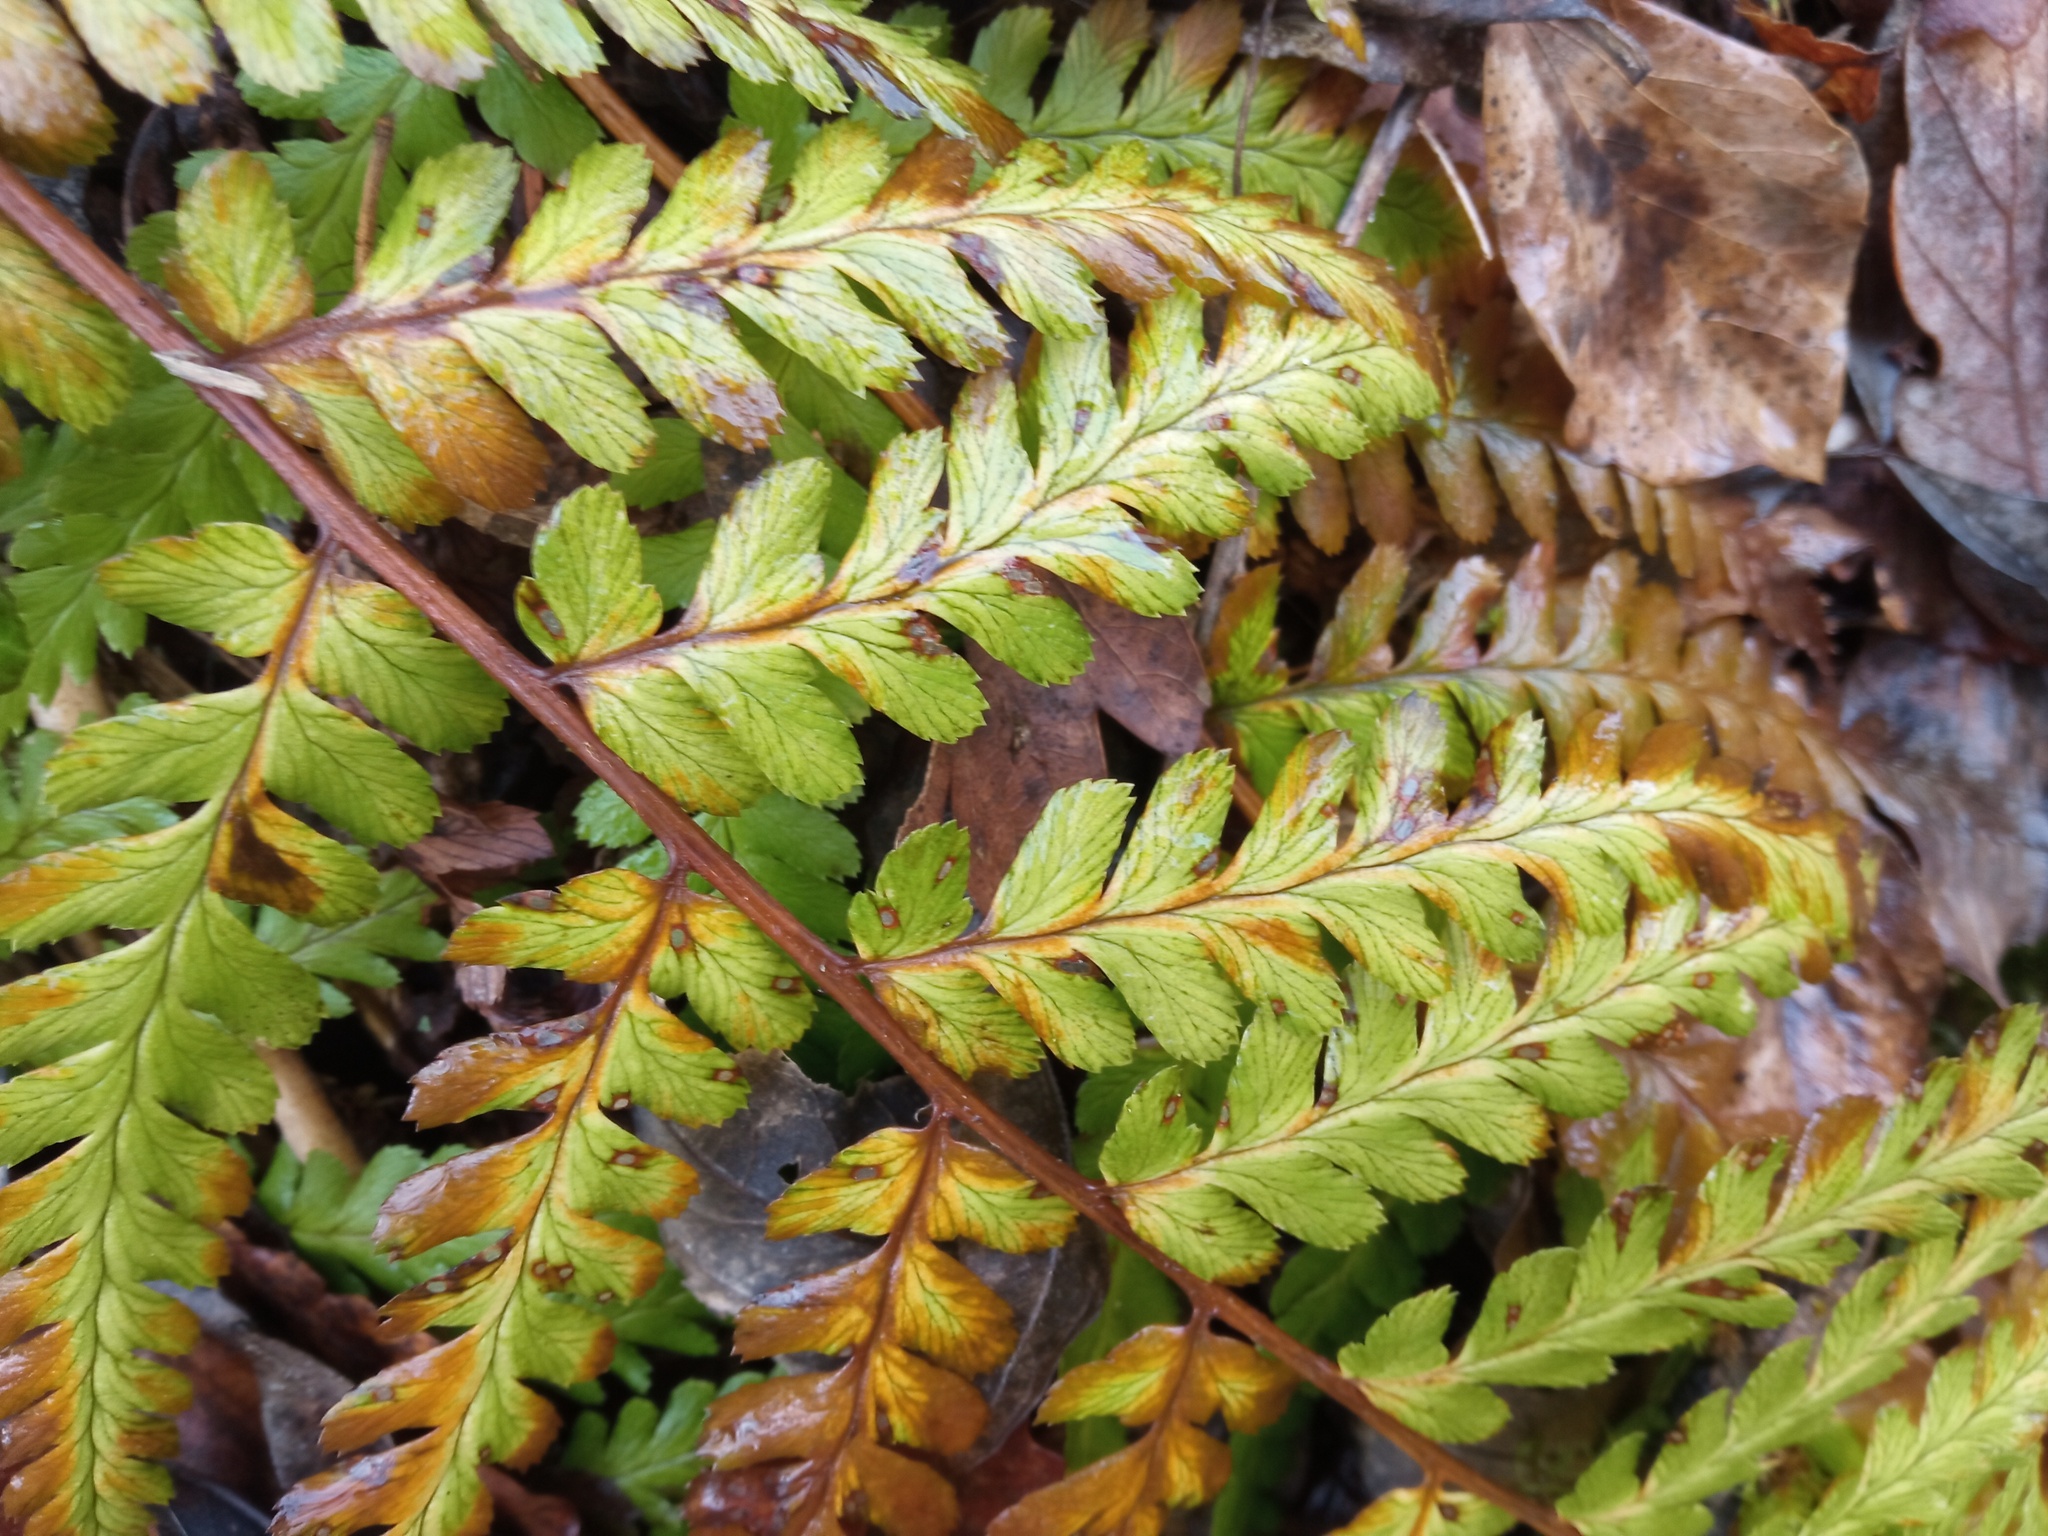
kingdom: Plantae
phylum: Tracheophyta
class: Polypodiopsida
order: Polypodiales
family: Dryopteridaceae
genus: Dryopteris
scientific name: Dryopteris filix-mas
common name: Male fern
